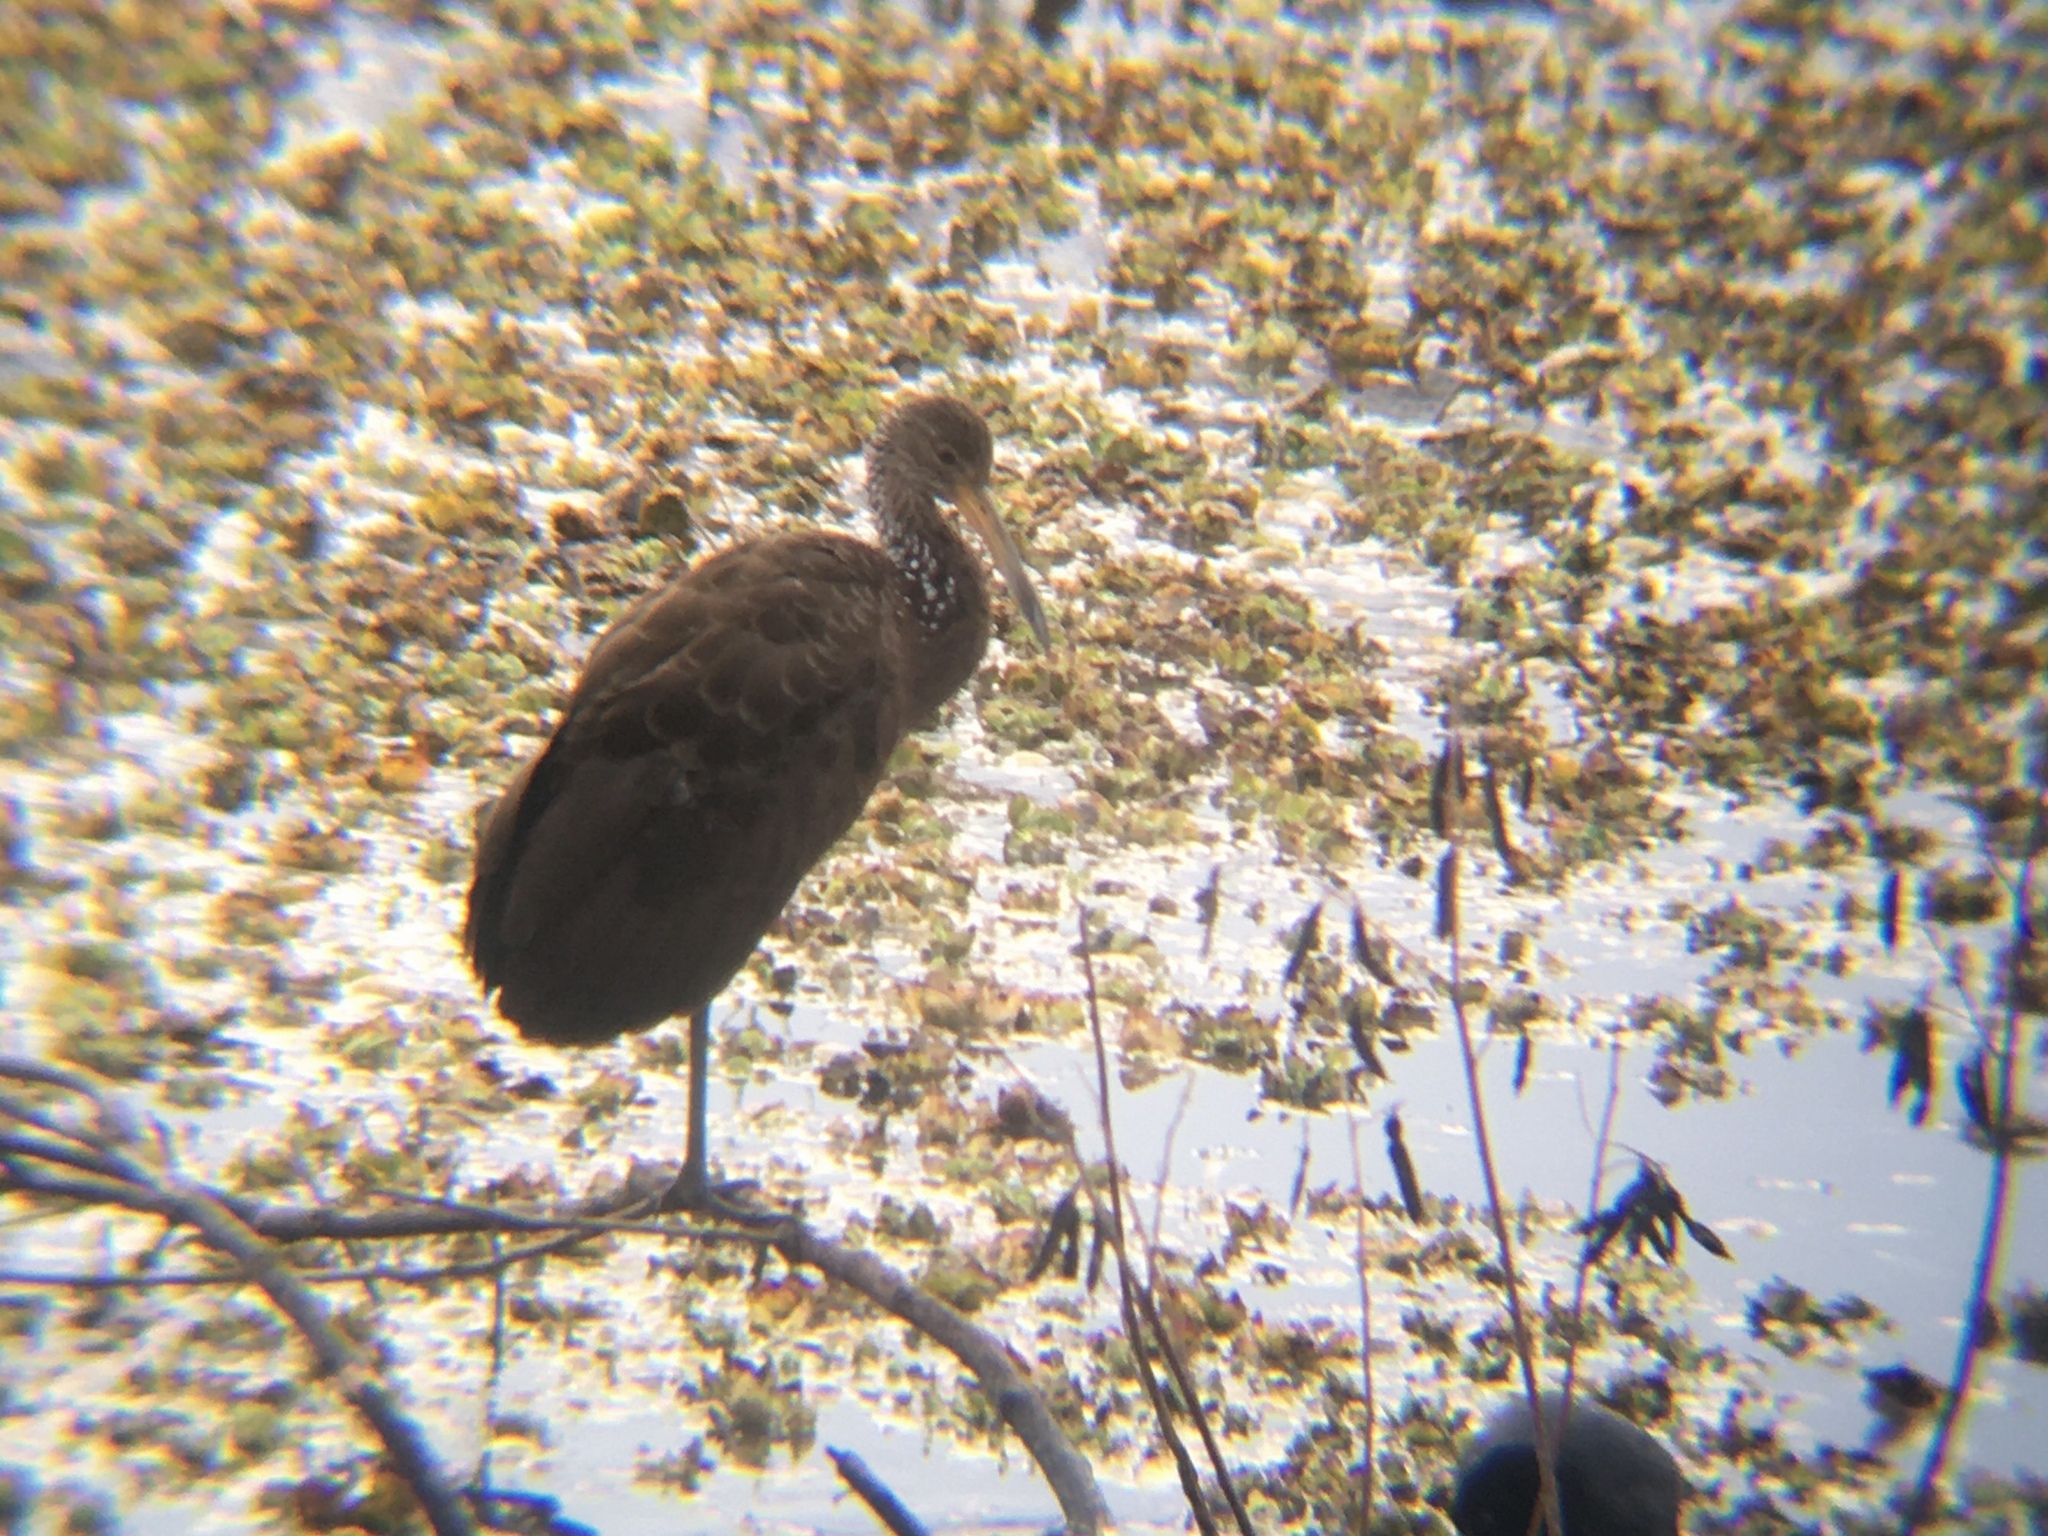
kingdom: Animalia
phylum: Chordata
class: Aves
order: Gruiformes
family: Aramidae
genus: Aramus
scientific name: Aramus guarauna
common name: Limpkin
